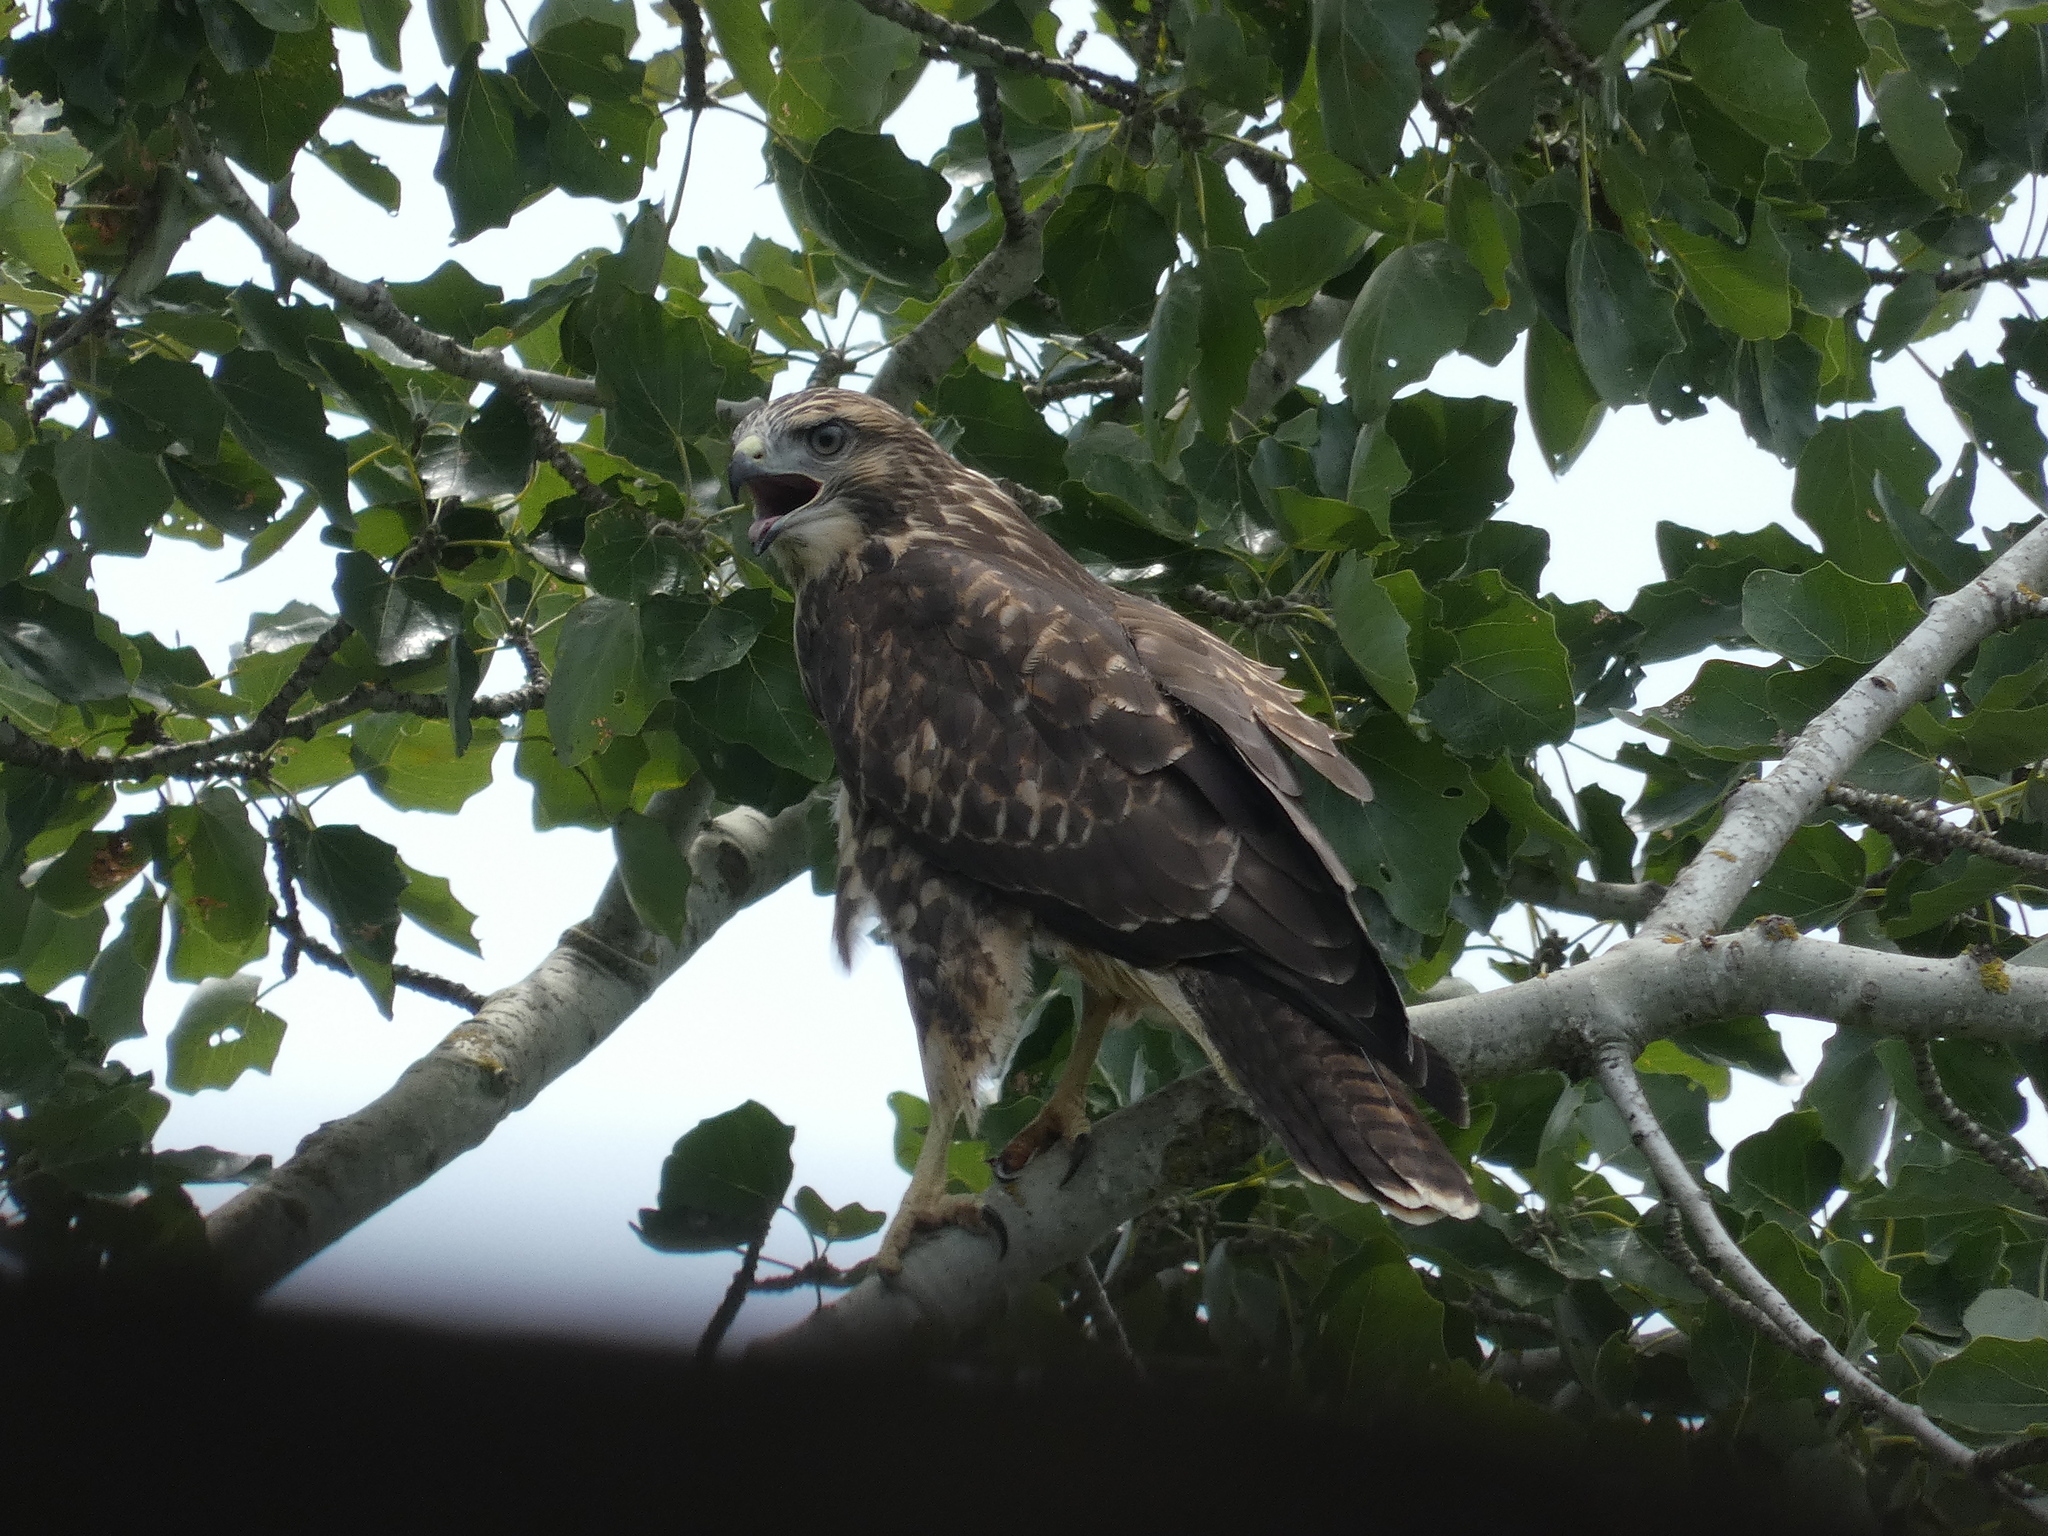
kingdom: Animalia
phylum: Chordata
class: Aves
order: Accipitriformes
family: Accipitridae
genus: Buteo
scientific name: Buteo buteo
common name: Common buzzard
